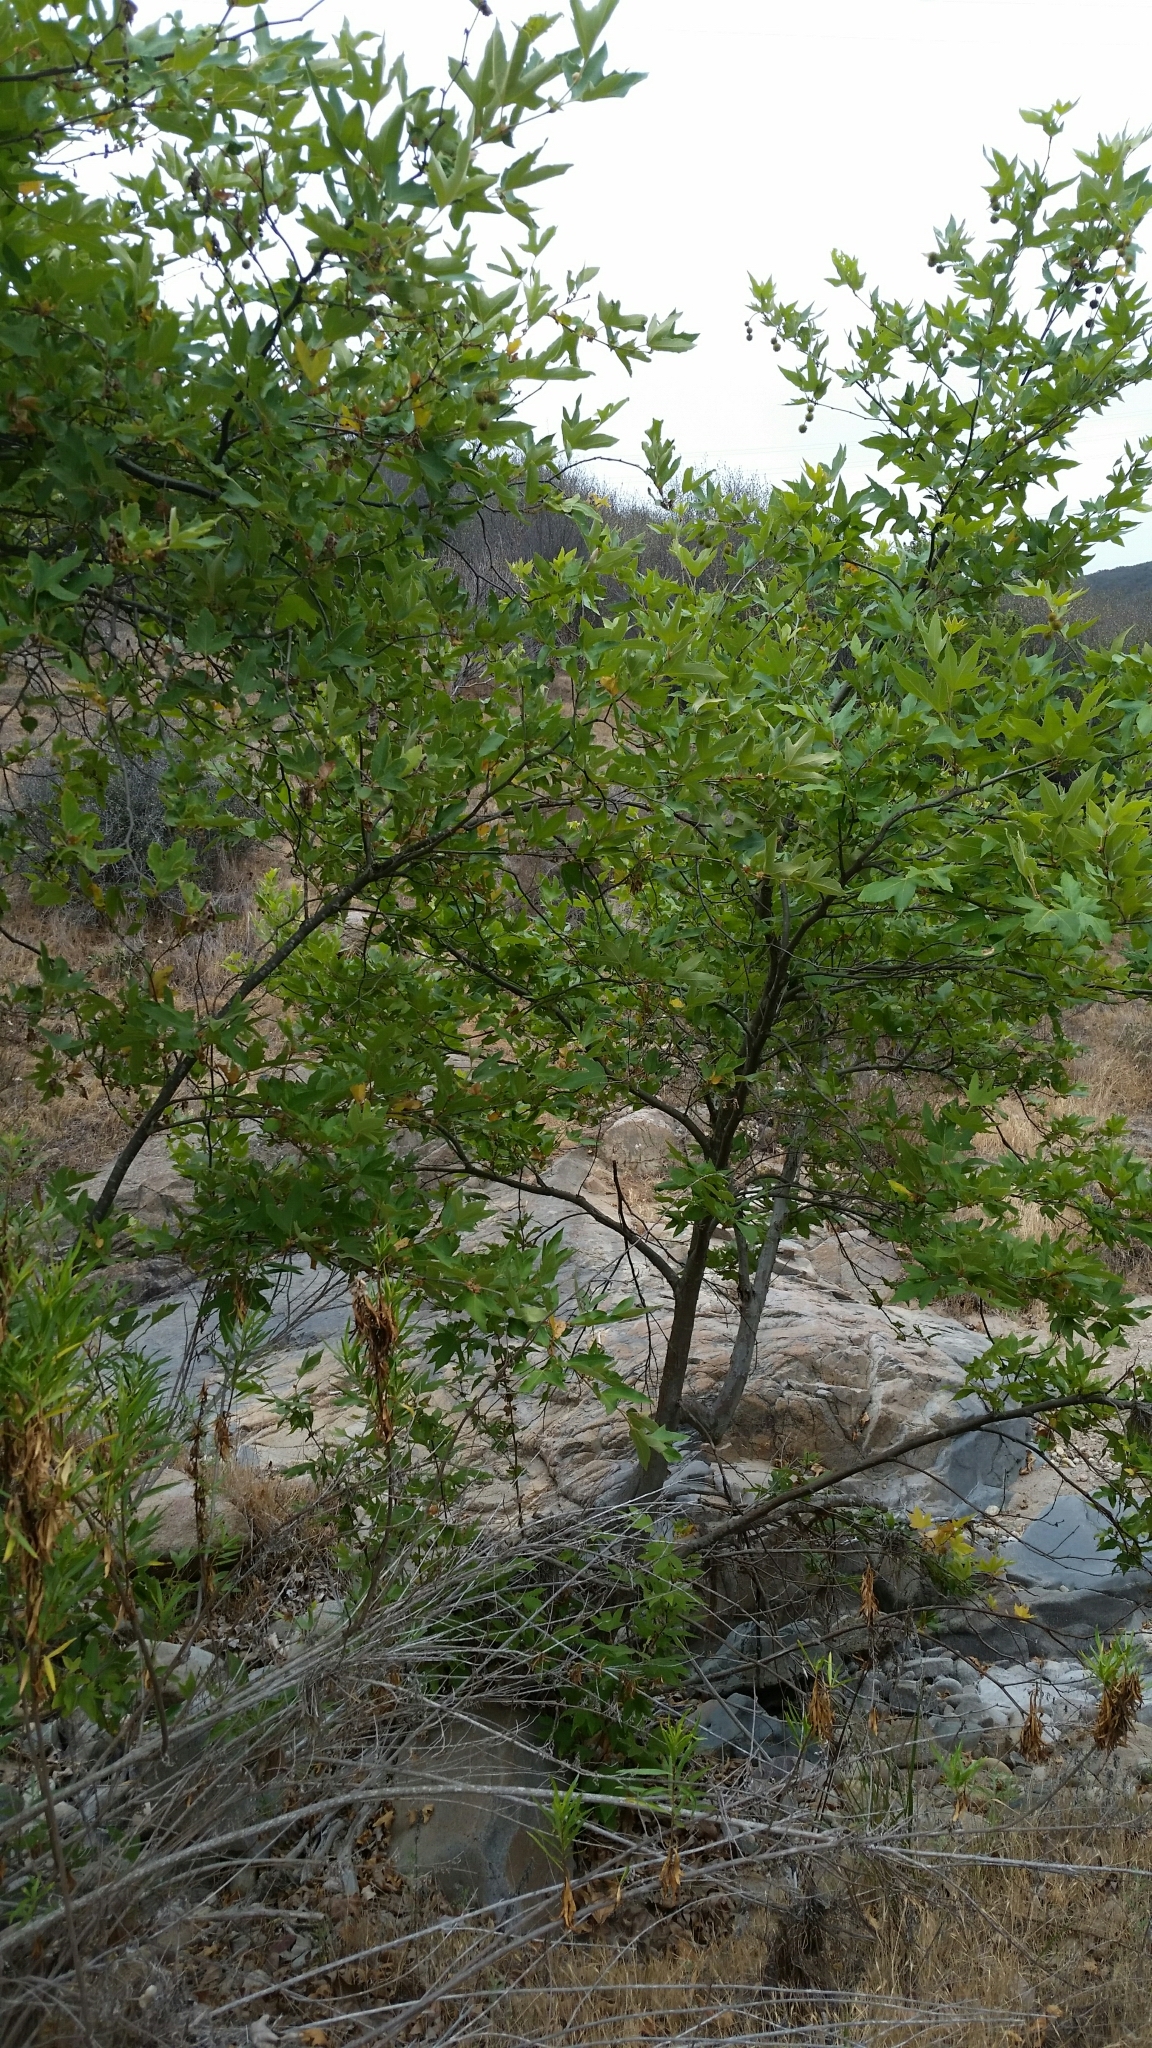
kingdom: Plantae
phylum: Tracheophyta
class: Magnoliopsida
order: Proteales
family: Platanaceae
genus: Platanus
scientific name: Platanus racemosa
